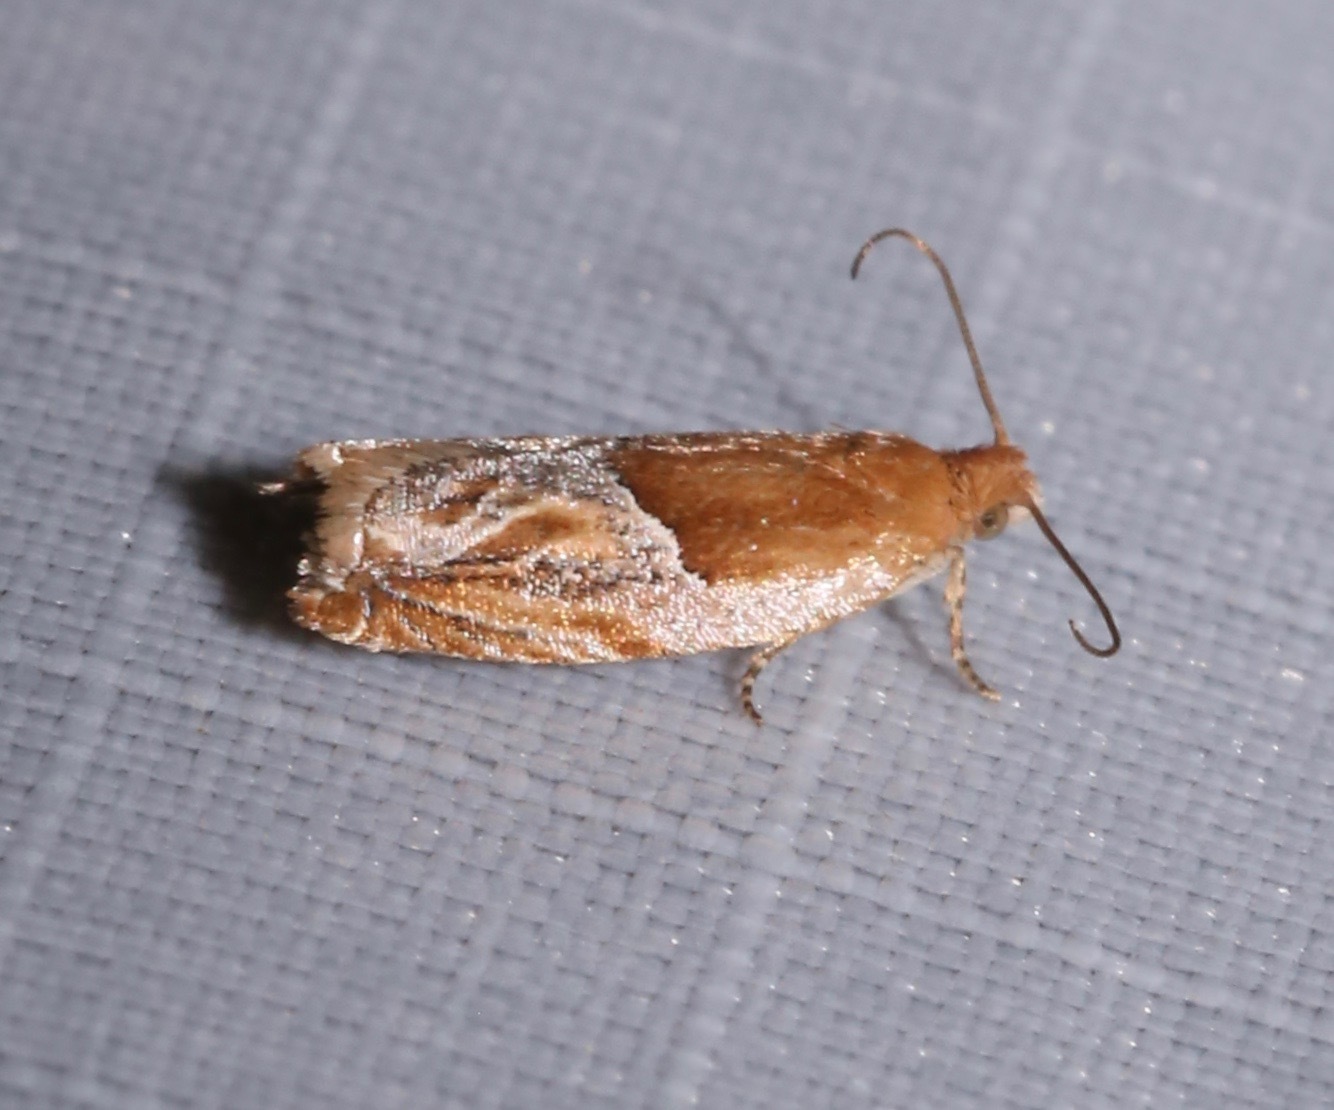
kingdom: Animalia
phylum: Arthropoda
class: Insecta
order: Lepidoptera
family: Tortricidae
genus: Ancylis
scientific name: Ancylis comptana
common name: Little roller
